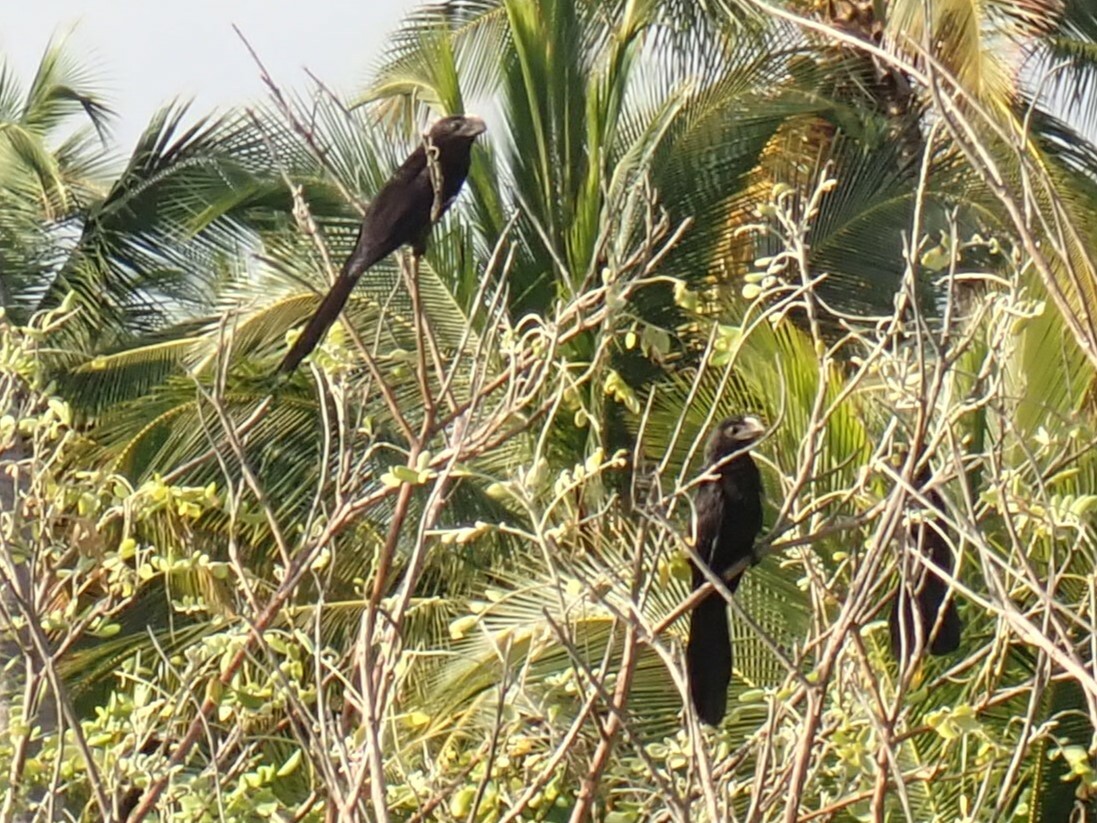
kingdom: Animalia
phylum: Chordata
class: Aves
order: Cuculiformes
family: Cuculidae
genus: Crotophaga
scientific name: Crotophaga ani
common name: Smooth-billed ani
